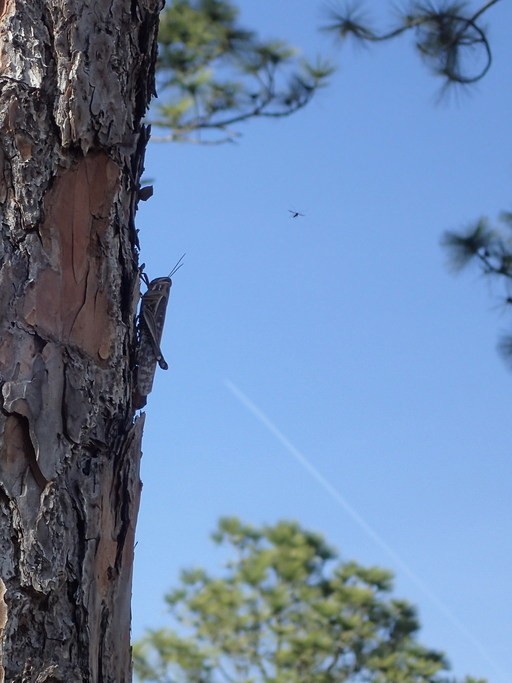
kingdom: Animalia
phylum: Arthropoda
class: Insecta
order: Orthoptera
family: Acrididae
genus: Schistocerca
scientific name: Schistocerca americana
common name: American bird locust
